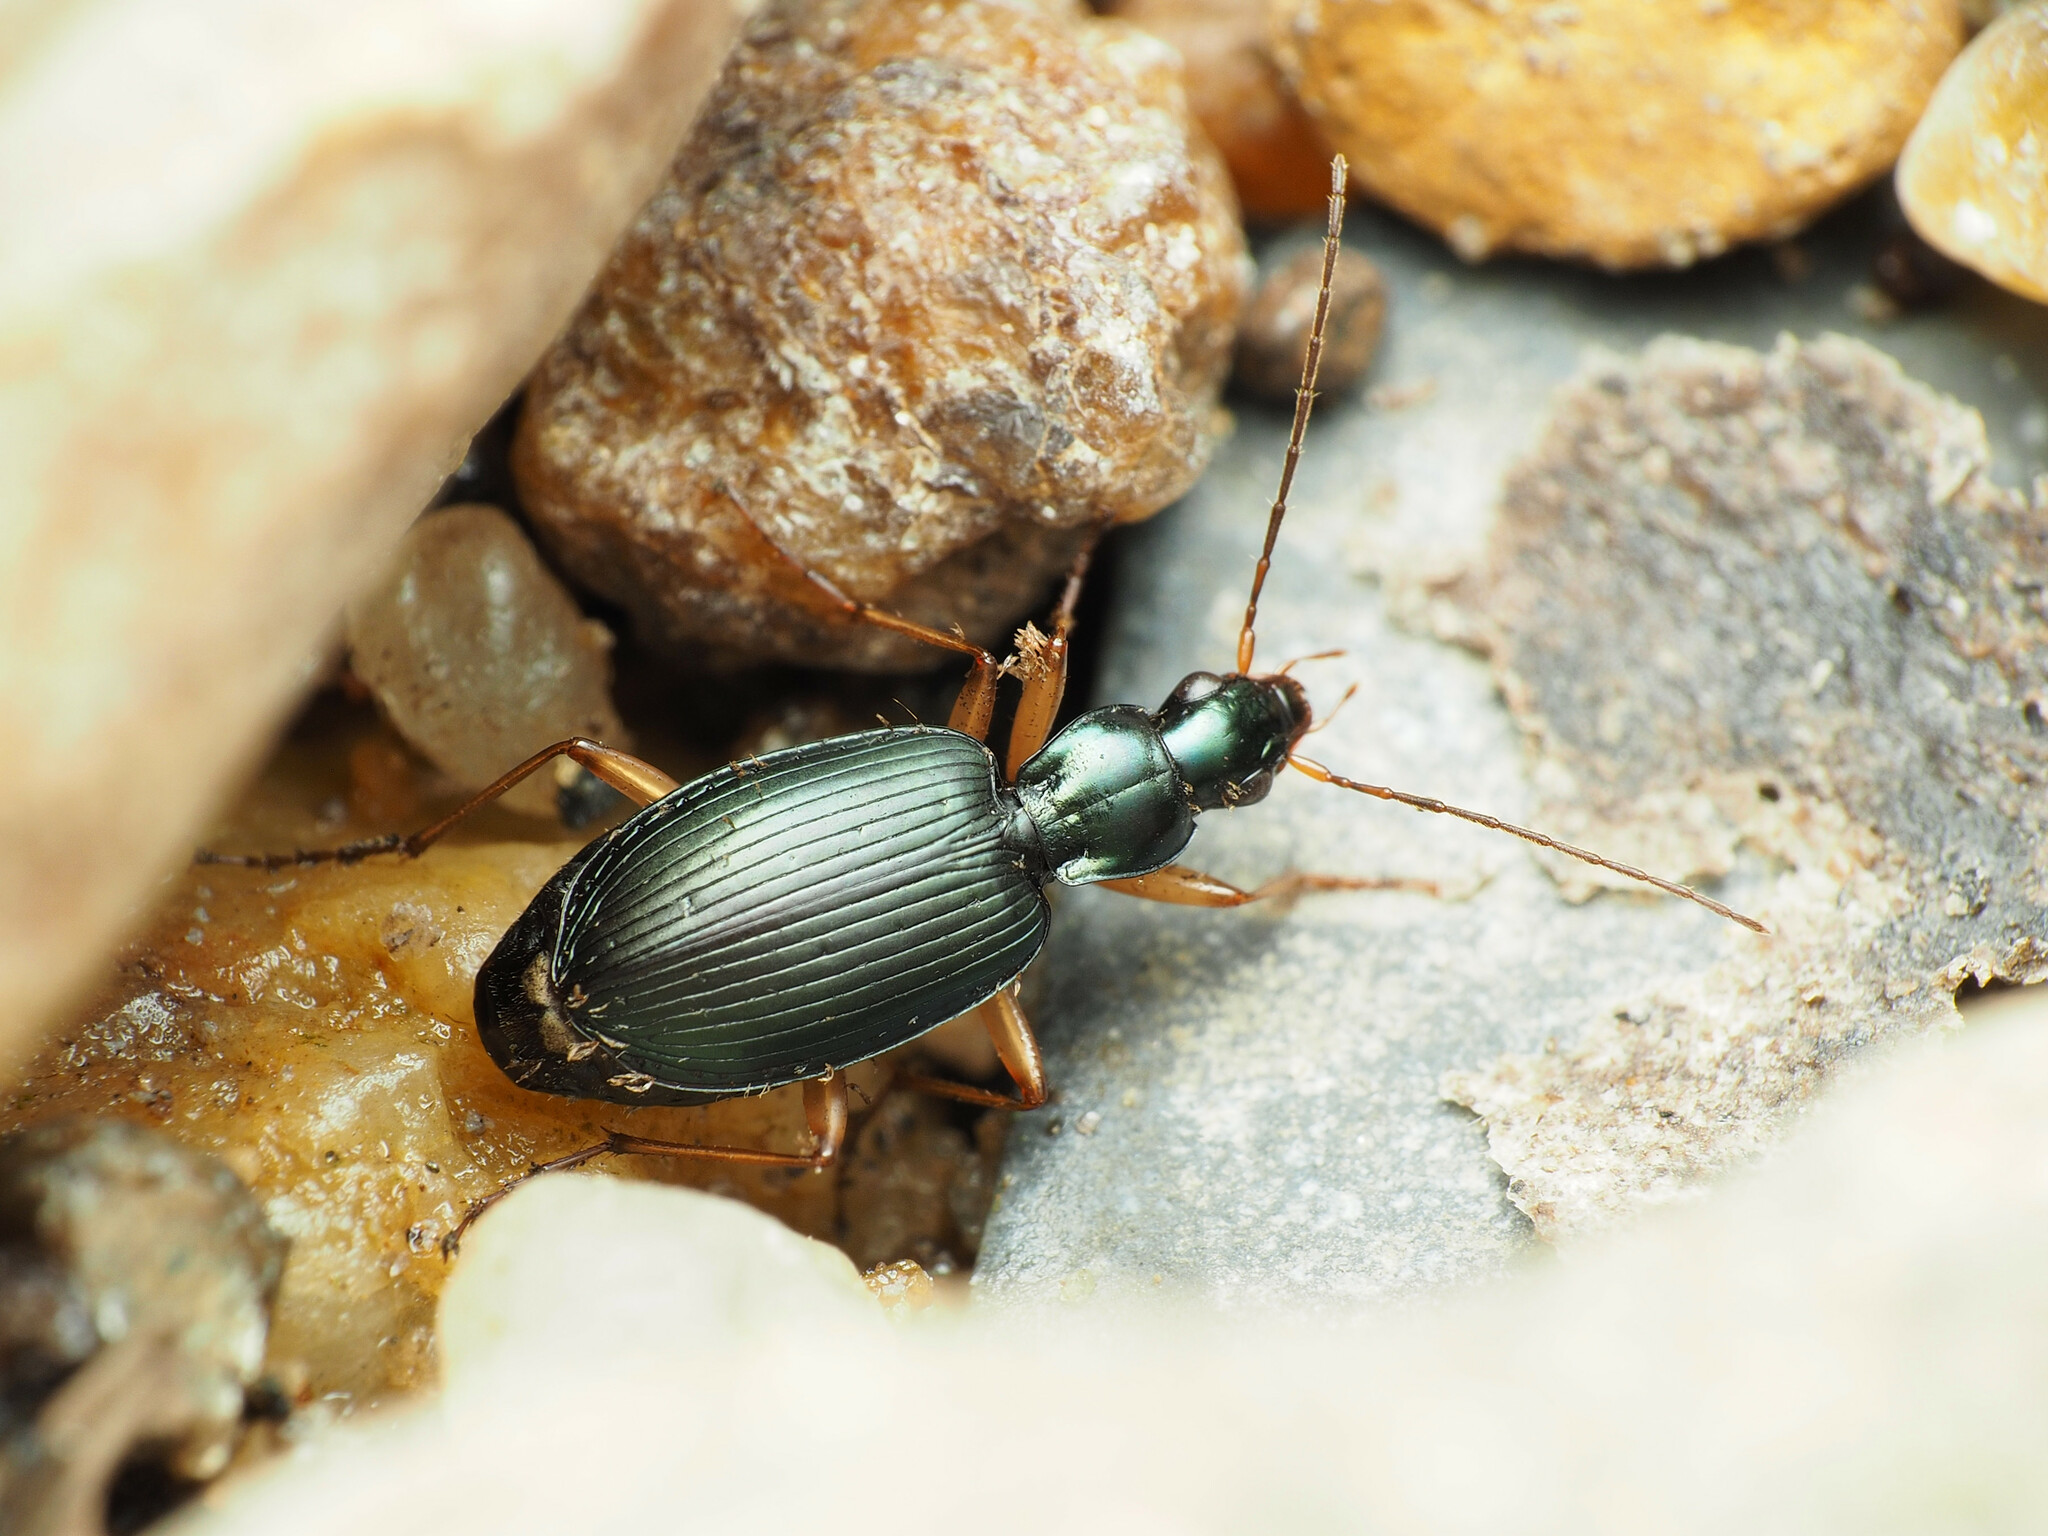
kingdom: Animalia
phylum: Arthropoda
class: Insecta
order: Coleoptera
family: Carabidae
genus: Agonum
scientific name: Agonum extensicolle
